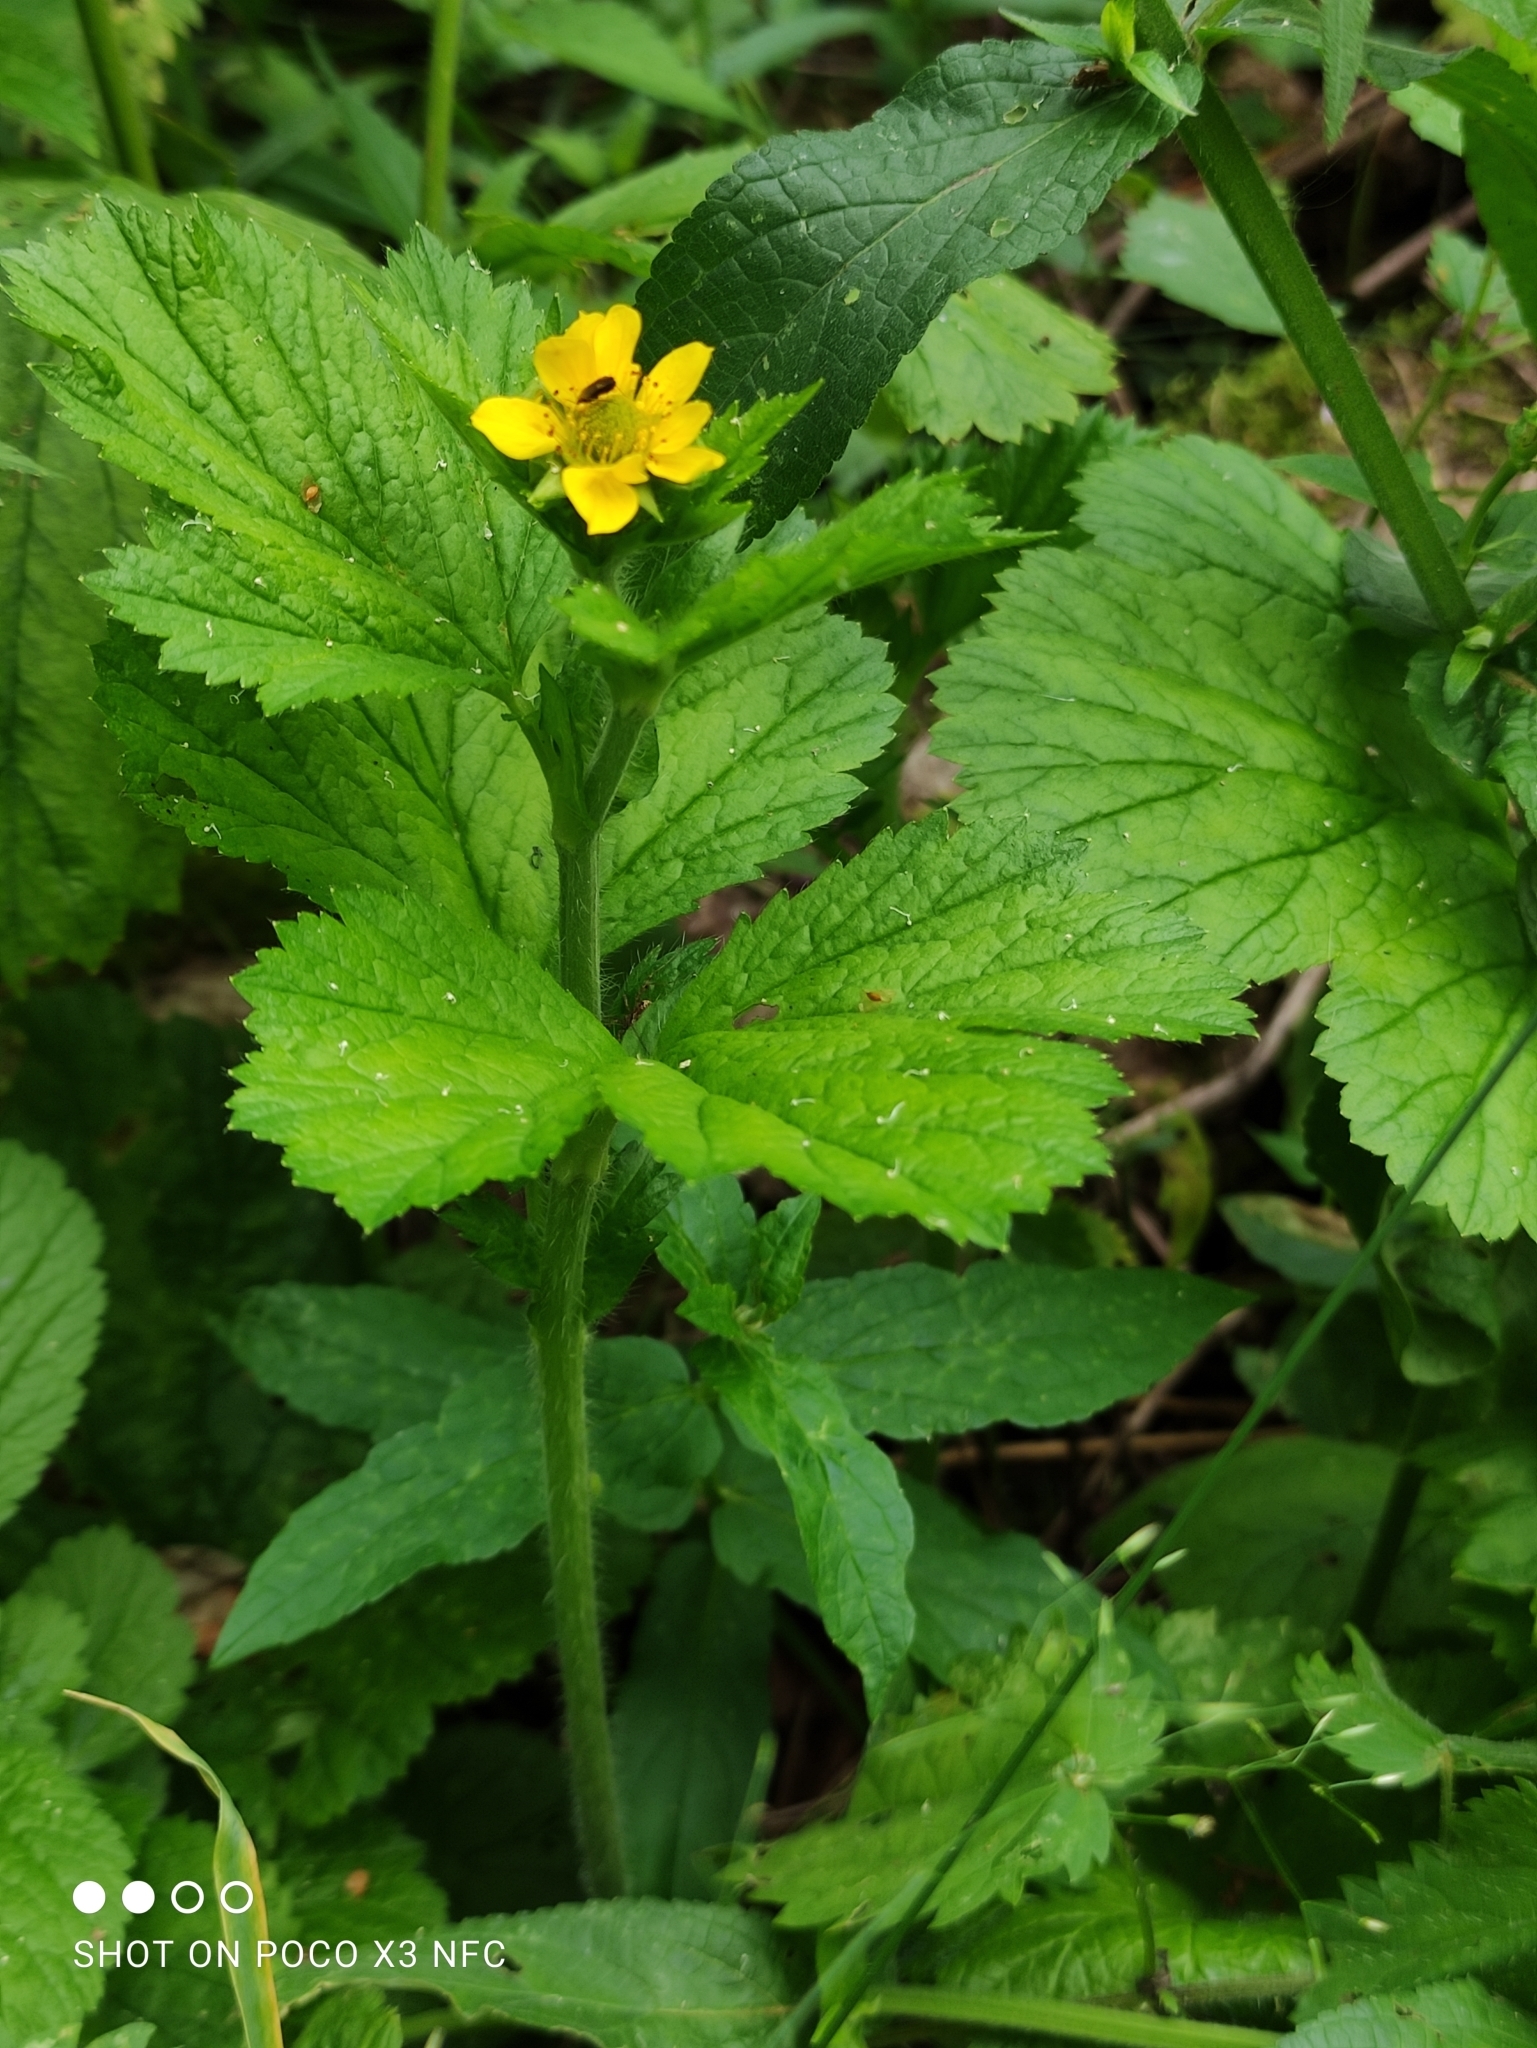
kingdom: Plantae
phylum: Tracheophyta
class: Magnoliopsida
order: Rosales
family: Rosaceae
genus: Geum
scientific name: Geum macrophyllum
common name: Large-leaved avens
